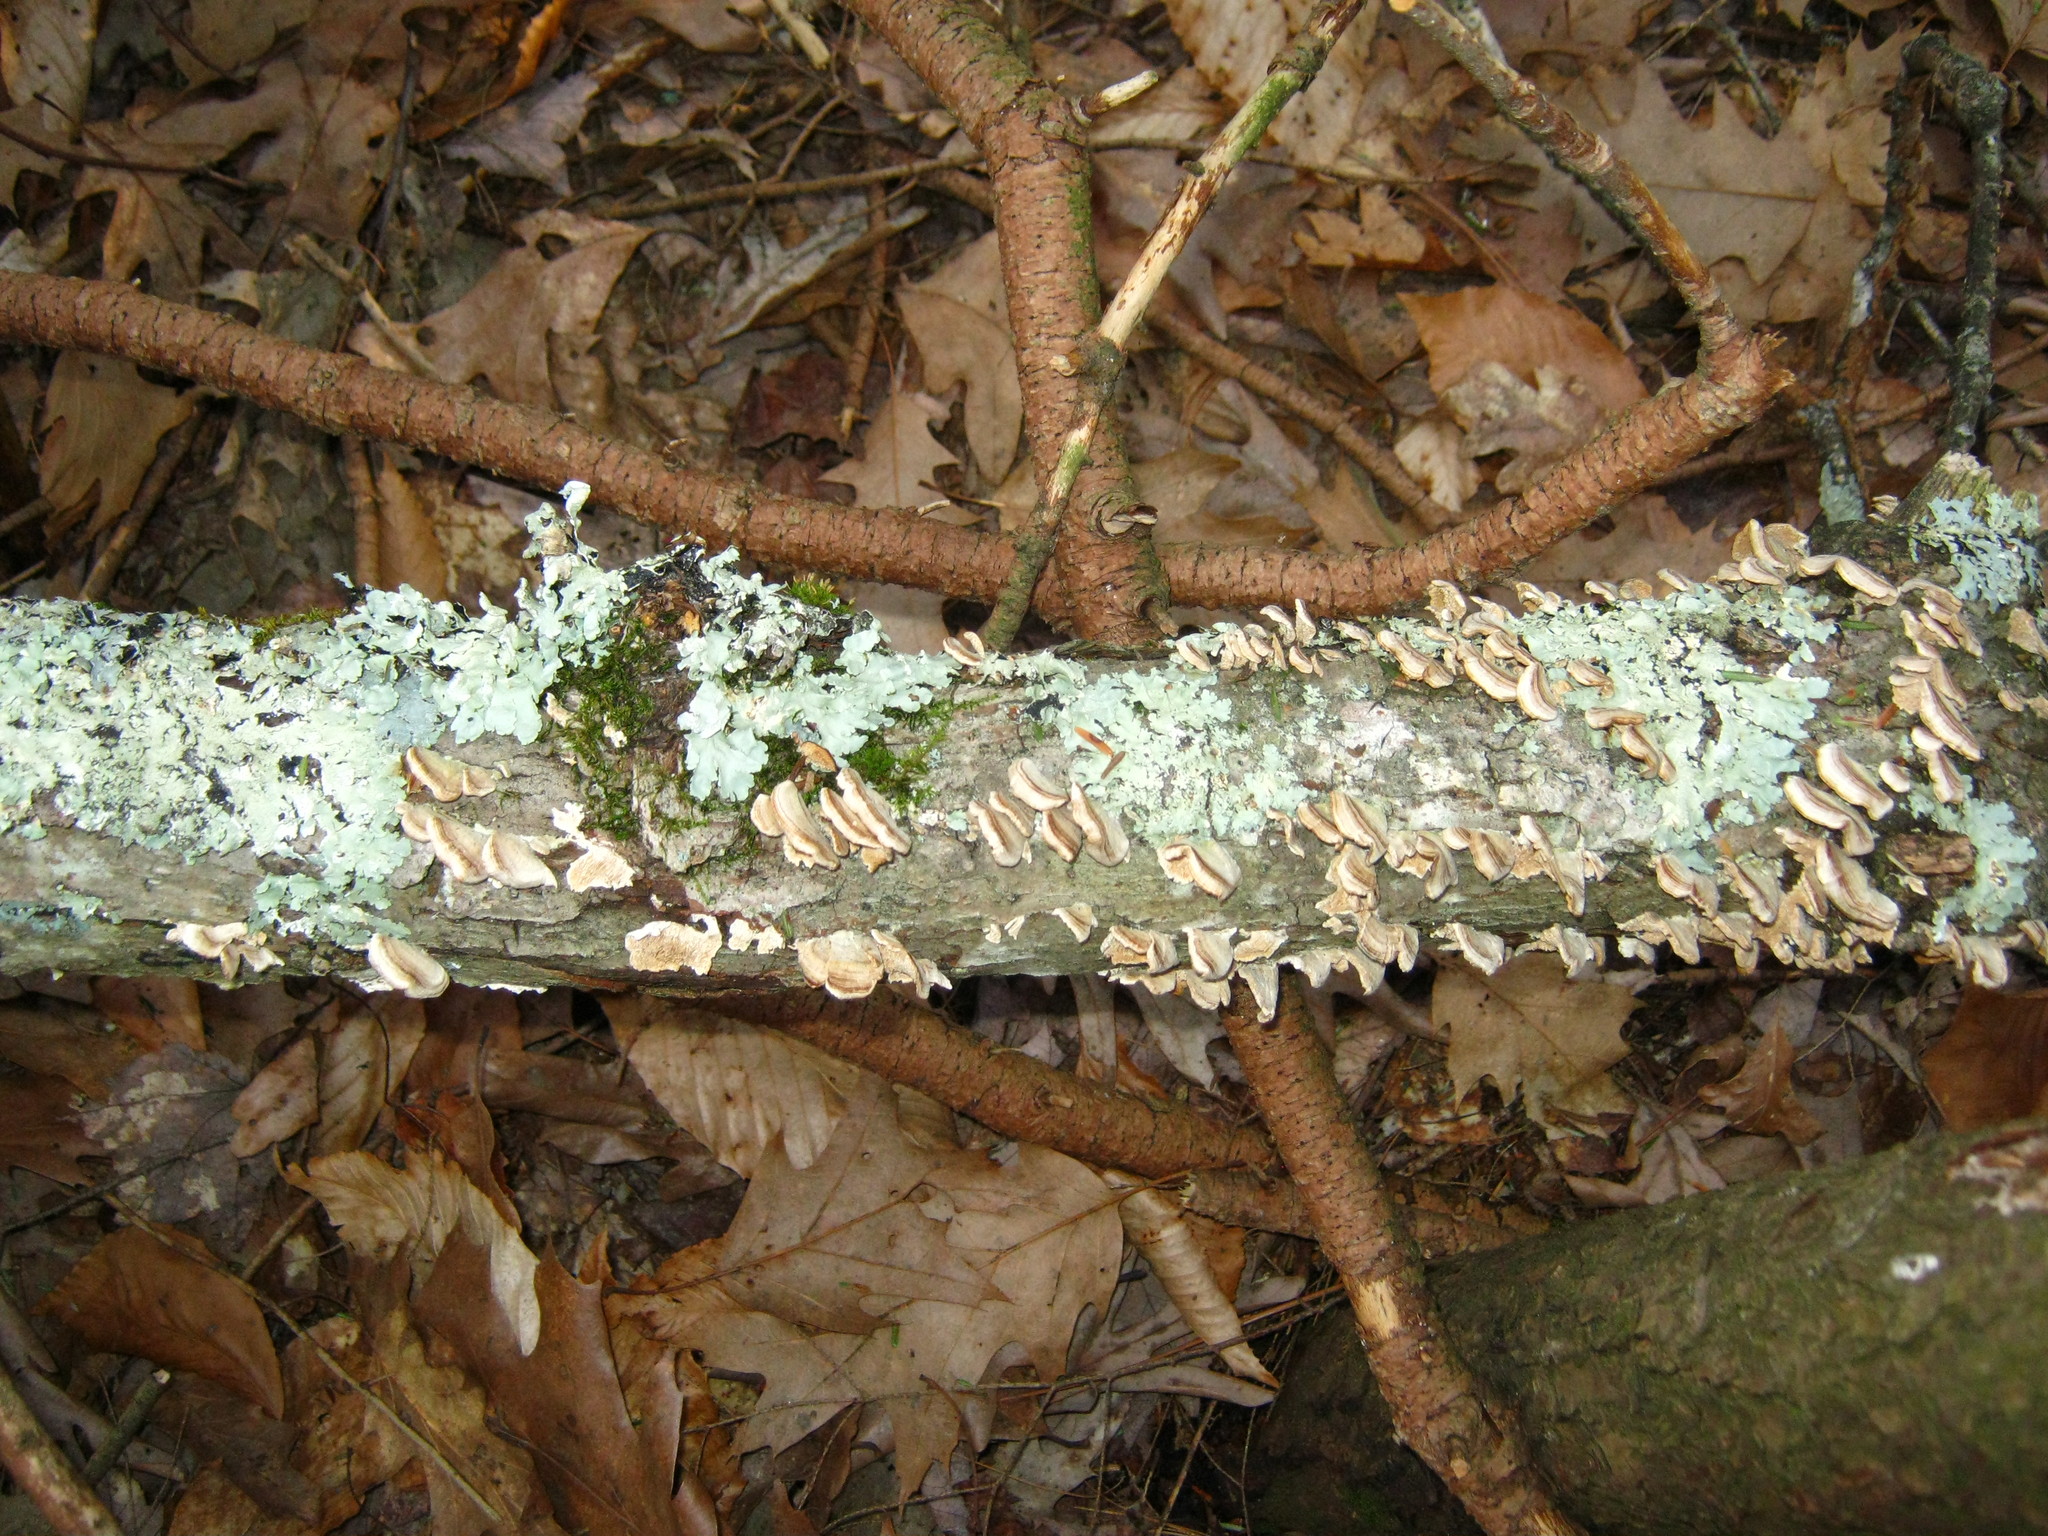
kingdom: Fungi
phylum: Basidiomycota
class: Agaricomycetes
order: Hymenochaetales
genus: Trichaptum
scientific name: Trichaptum biforme
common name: Violet-toothed polypore
